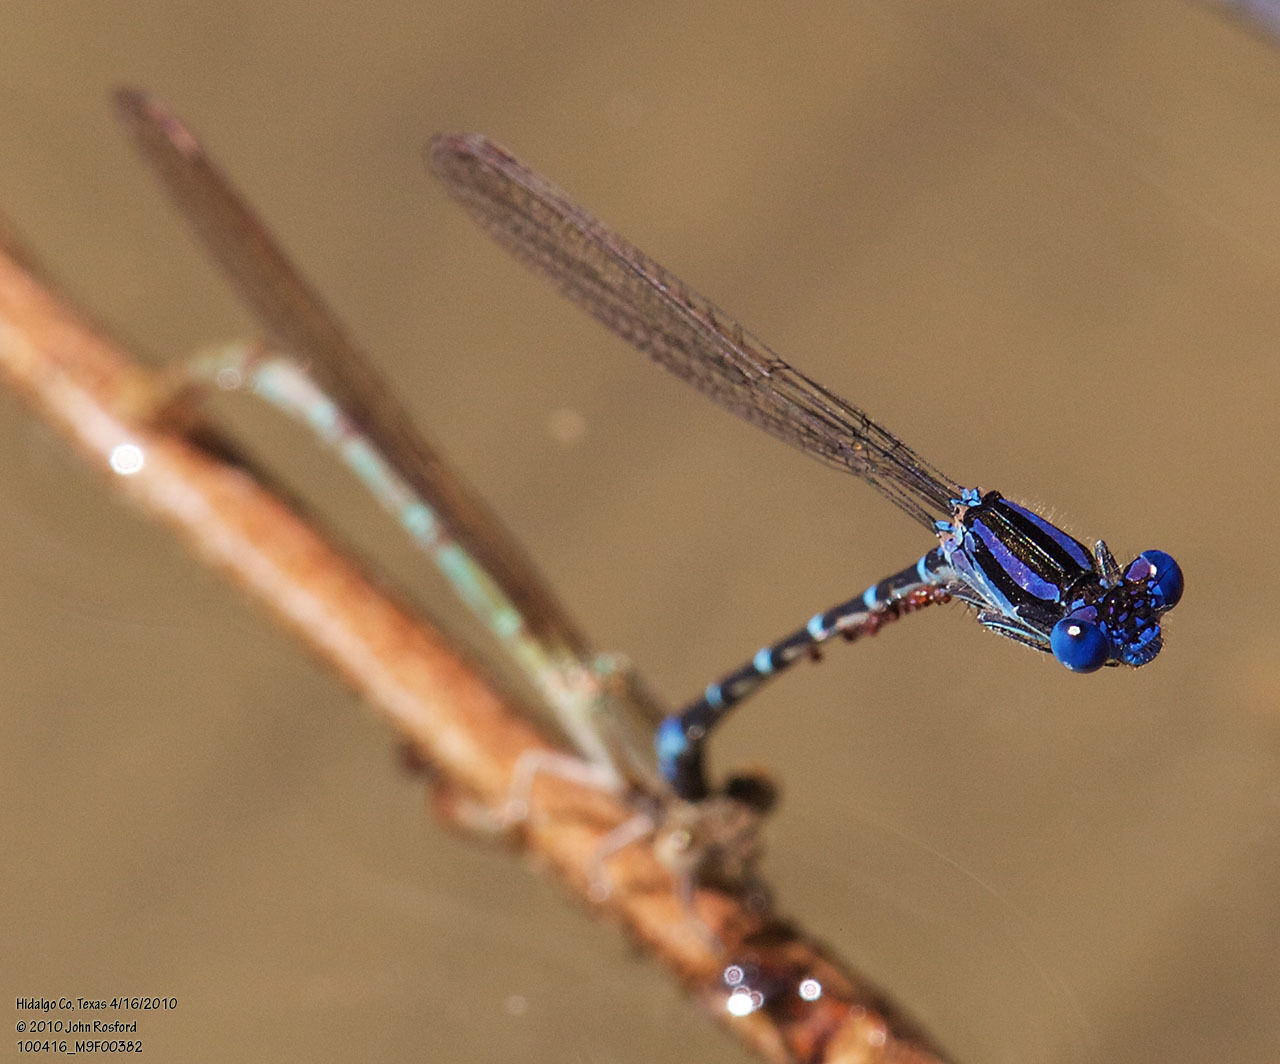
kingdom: Animalia
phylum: Arthropoda
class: Insecta
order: Odonata
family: Coenagrionidae
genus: Argia
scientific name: Argia sedula
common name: Blue-ringed dancer
